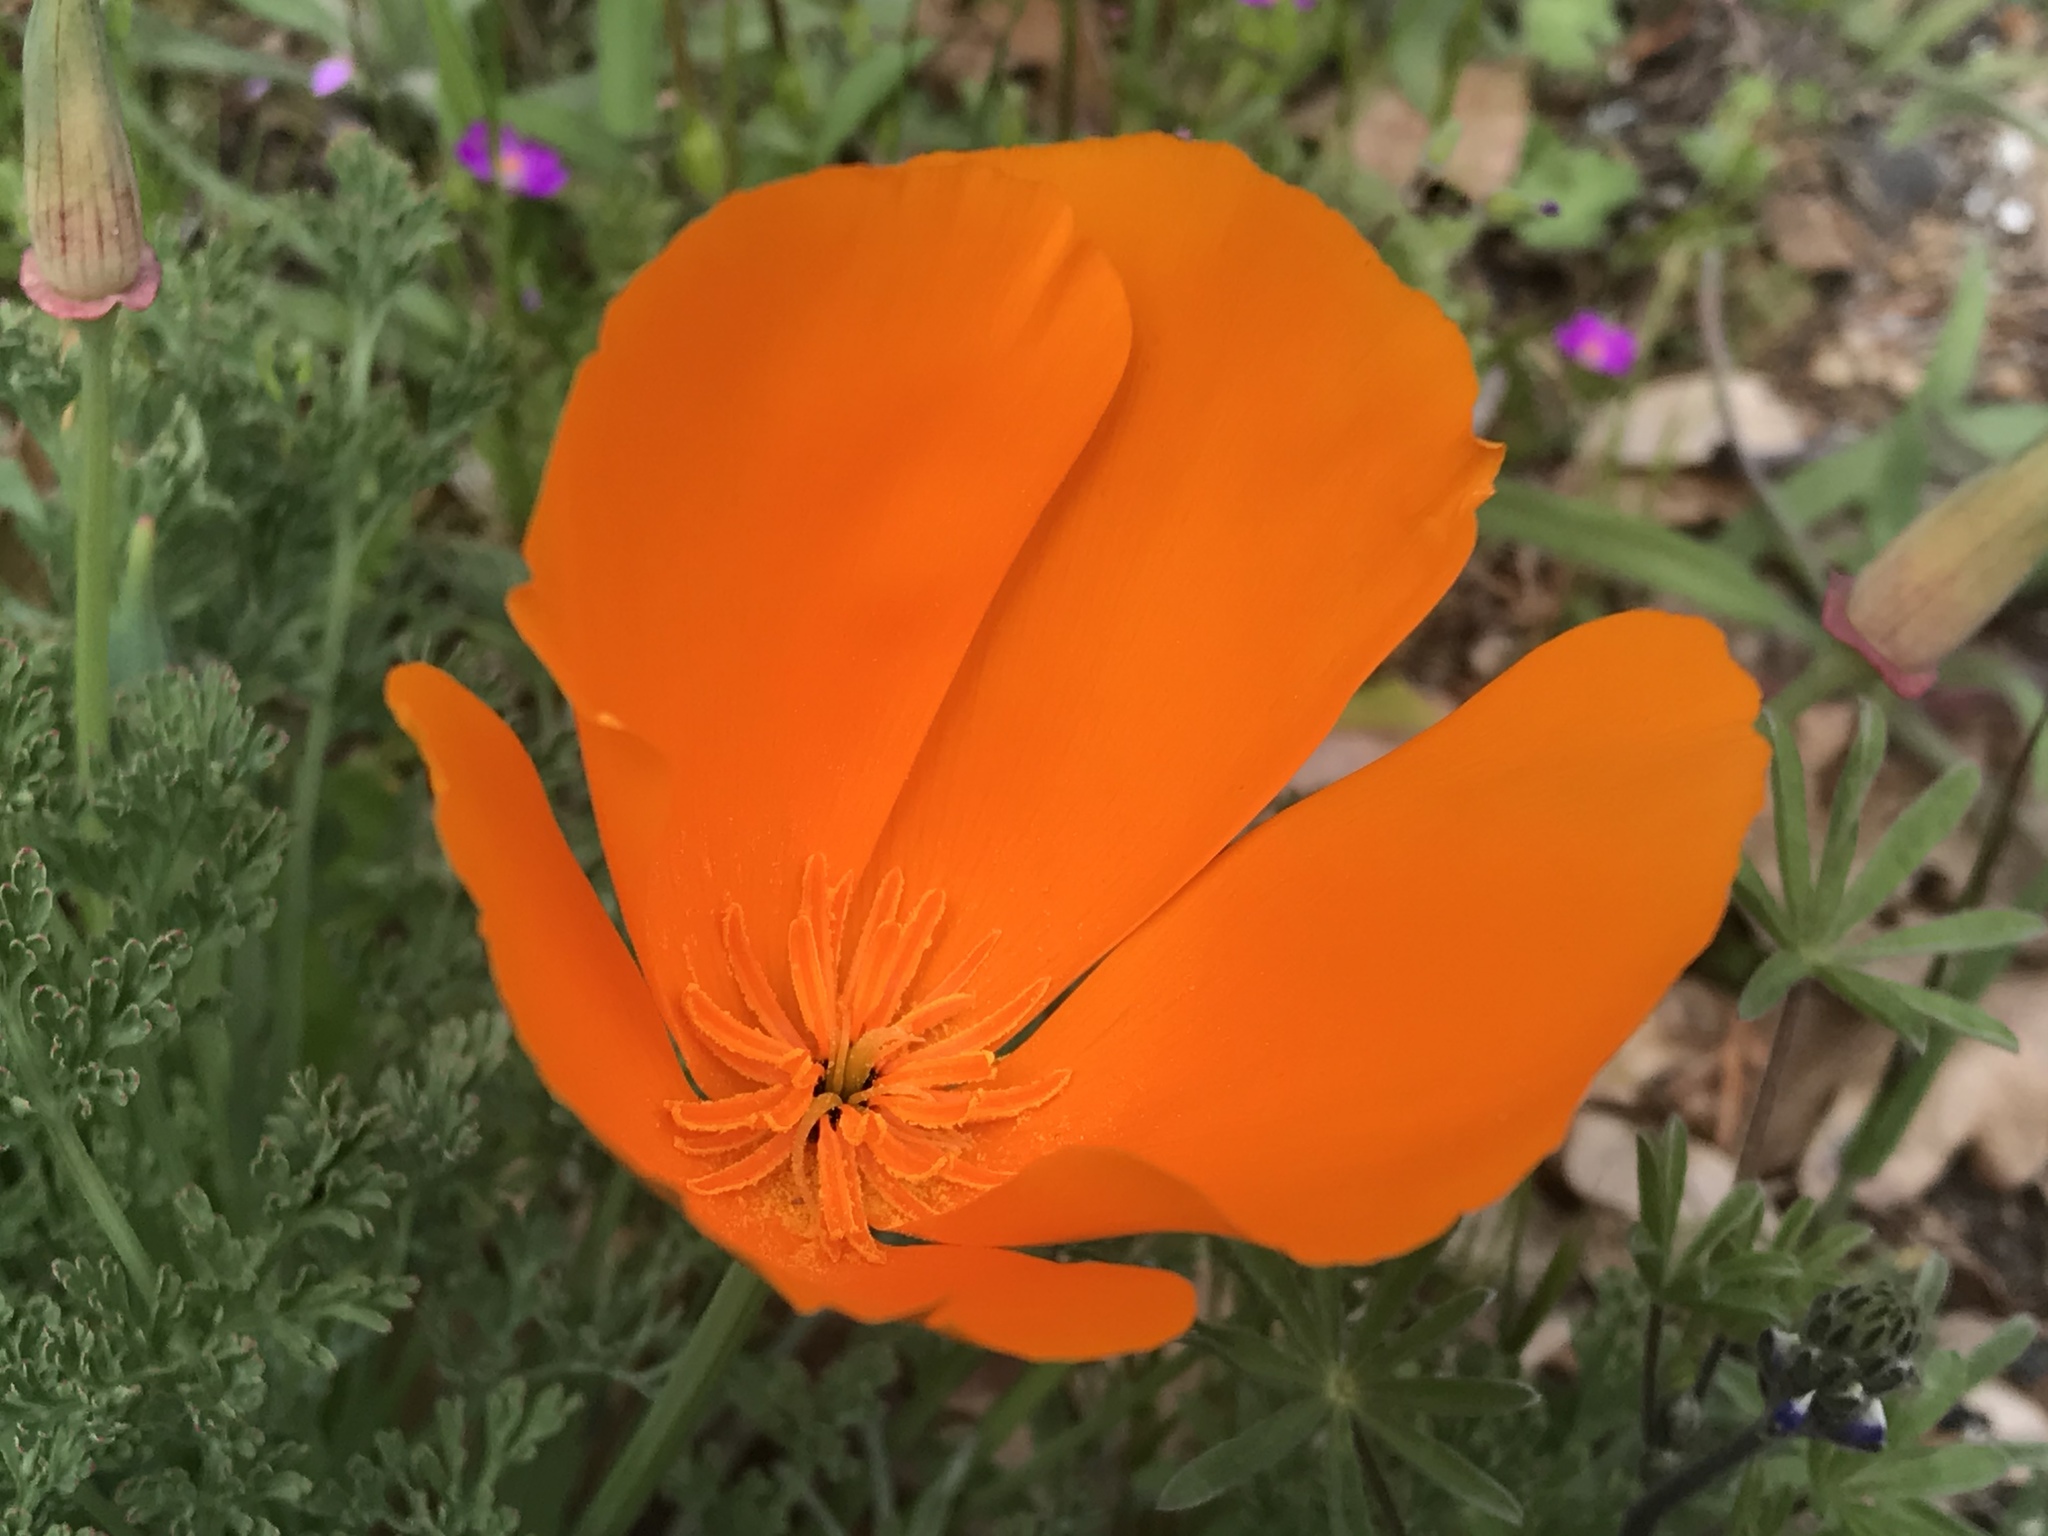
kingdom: Plantae
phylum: Tracheophyta
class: Magnoliopsida
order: Ranunculales
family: Papaveraceae
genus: Eschscholzia
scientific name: Eschscholzia californica
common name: California poppy
